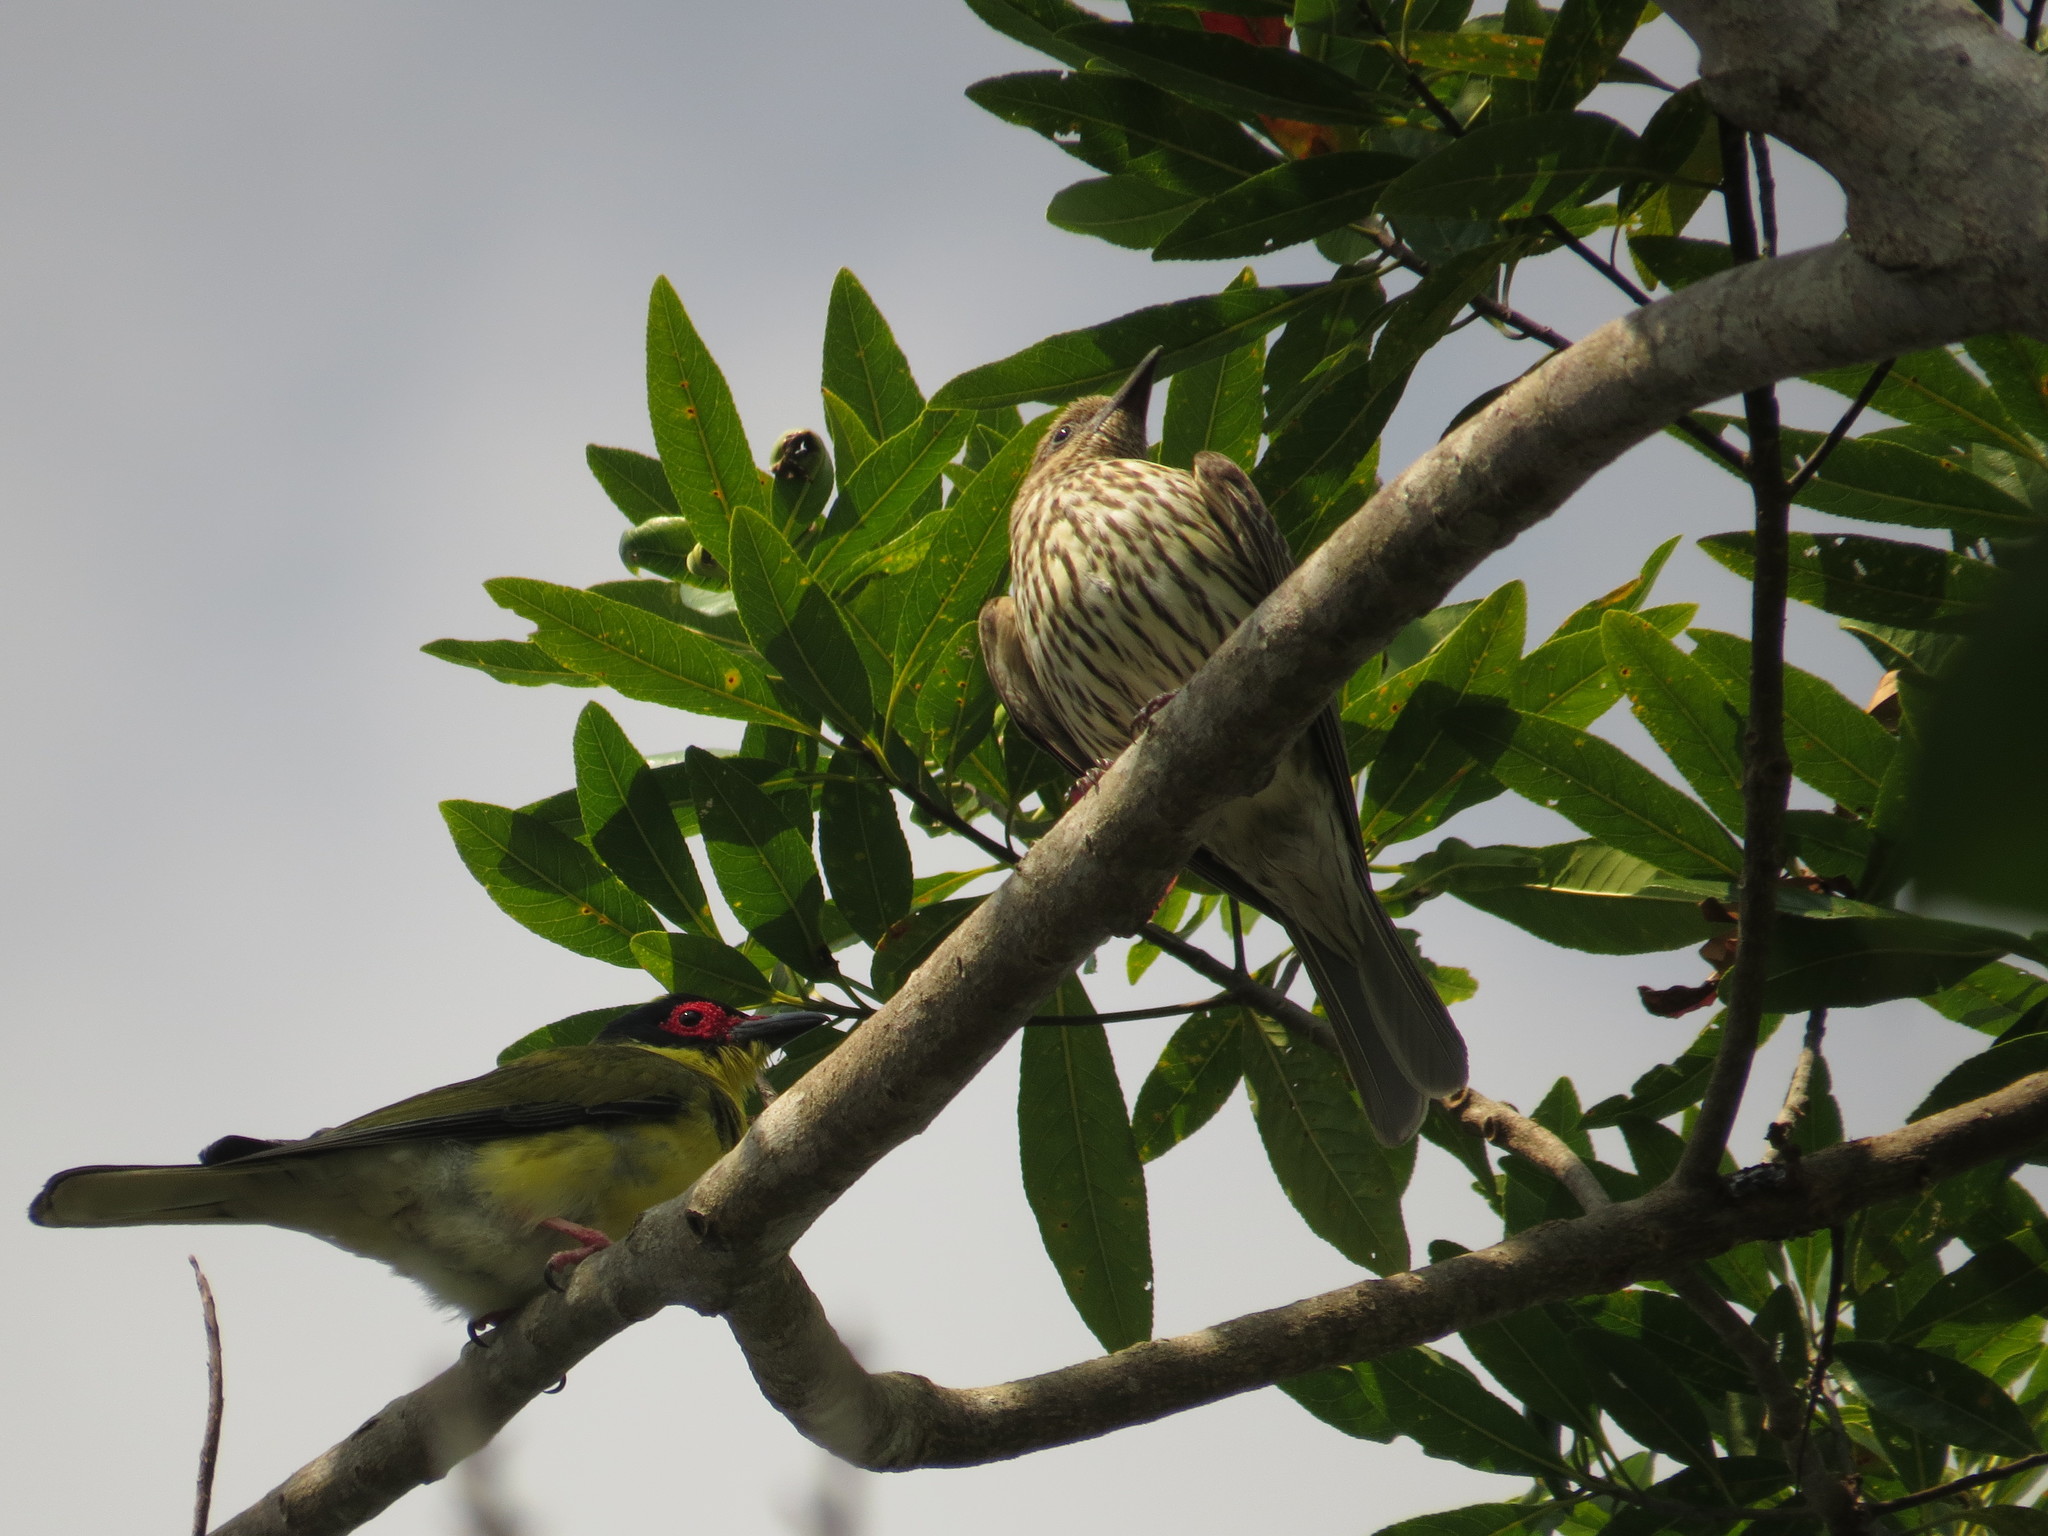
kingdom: Animalia
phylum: Chordata
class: Aves
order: Passeriformes
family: Oriolidae
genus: Sphecotheres
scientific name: Sphecotheres vieilloti
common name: Australasian figbird
